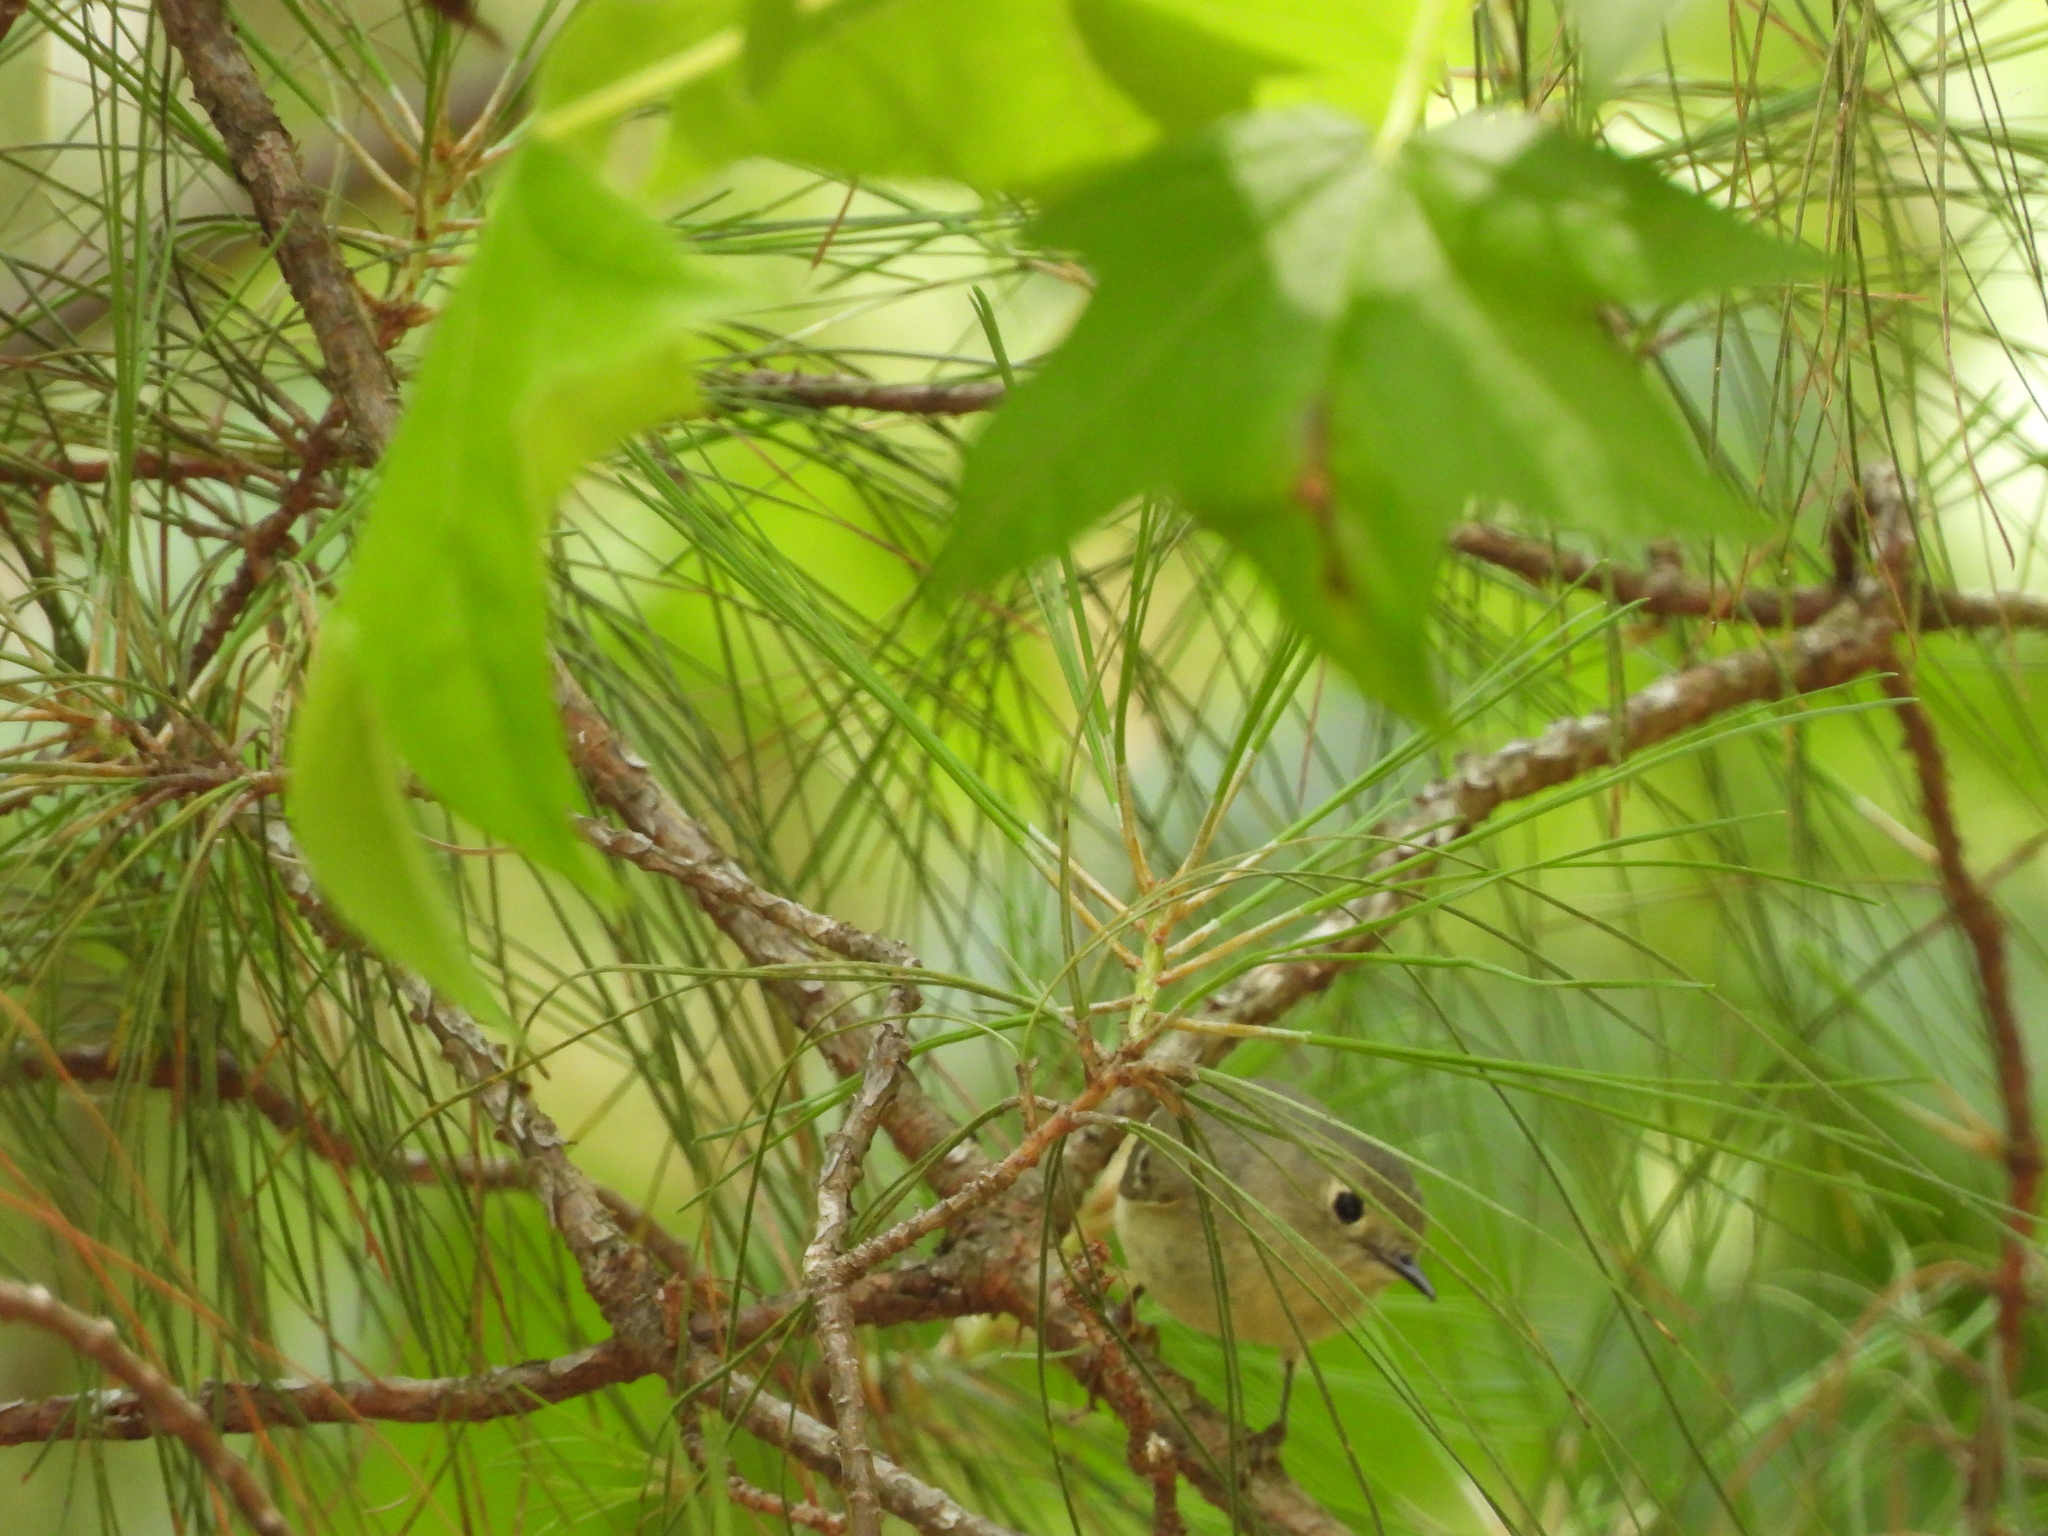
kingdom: Animalia
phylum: Chordata
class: Aves
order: Passeriformes
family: Regulidae
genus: Regulus
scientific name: Regulus calendula
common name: Ruby-crowned kinglet
